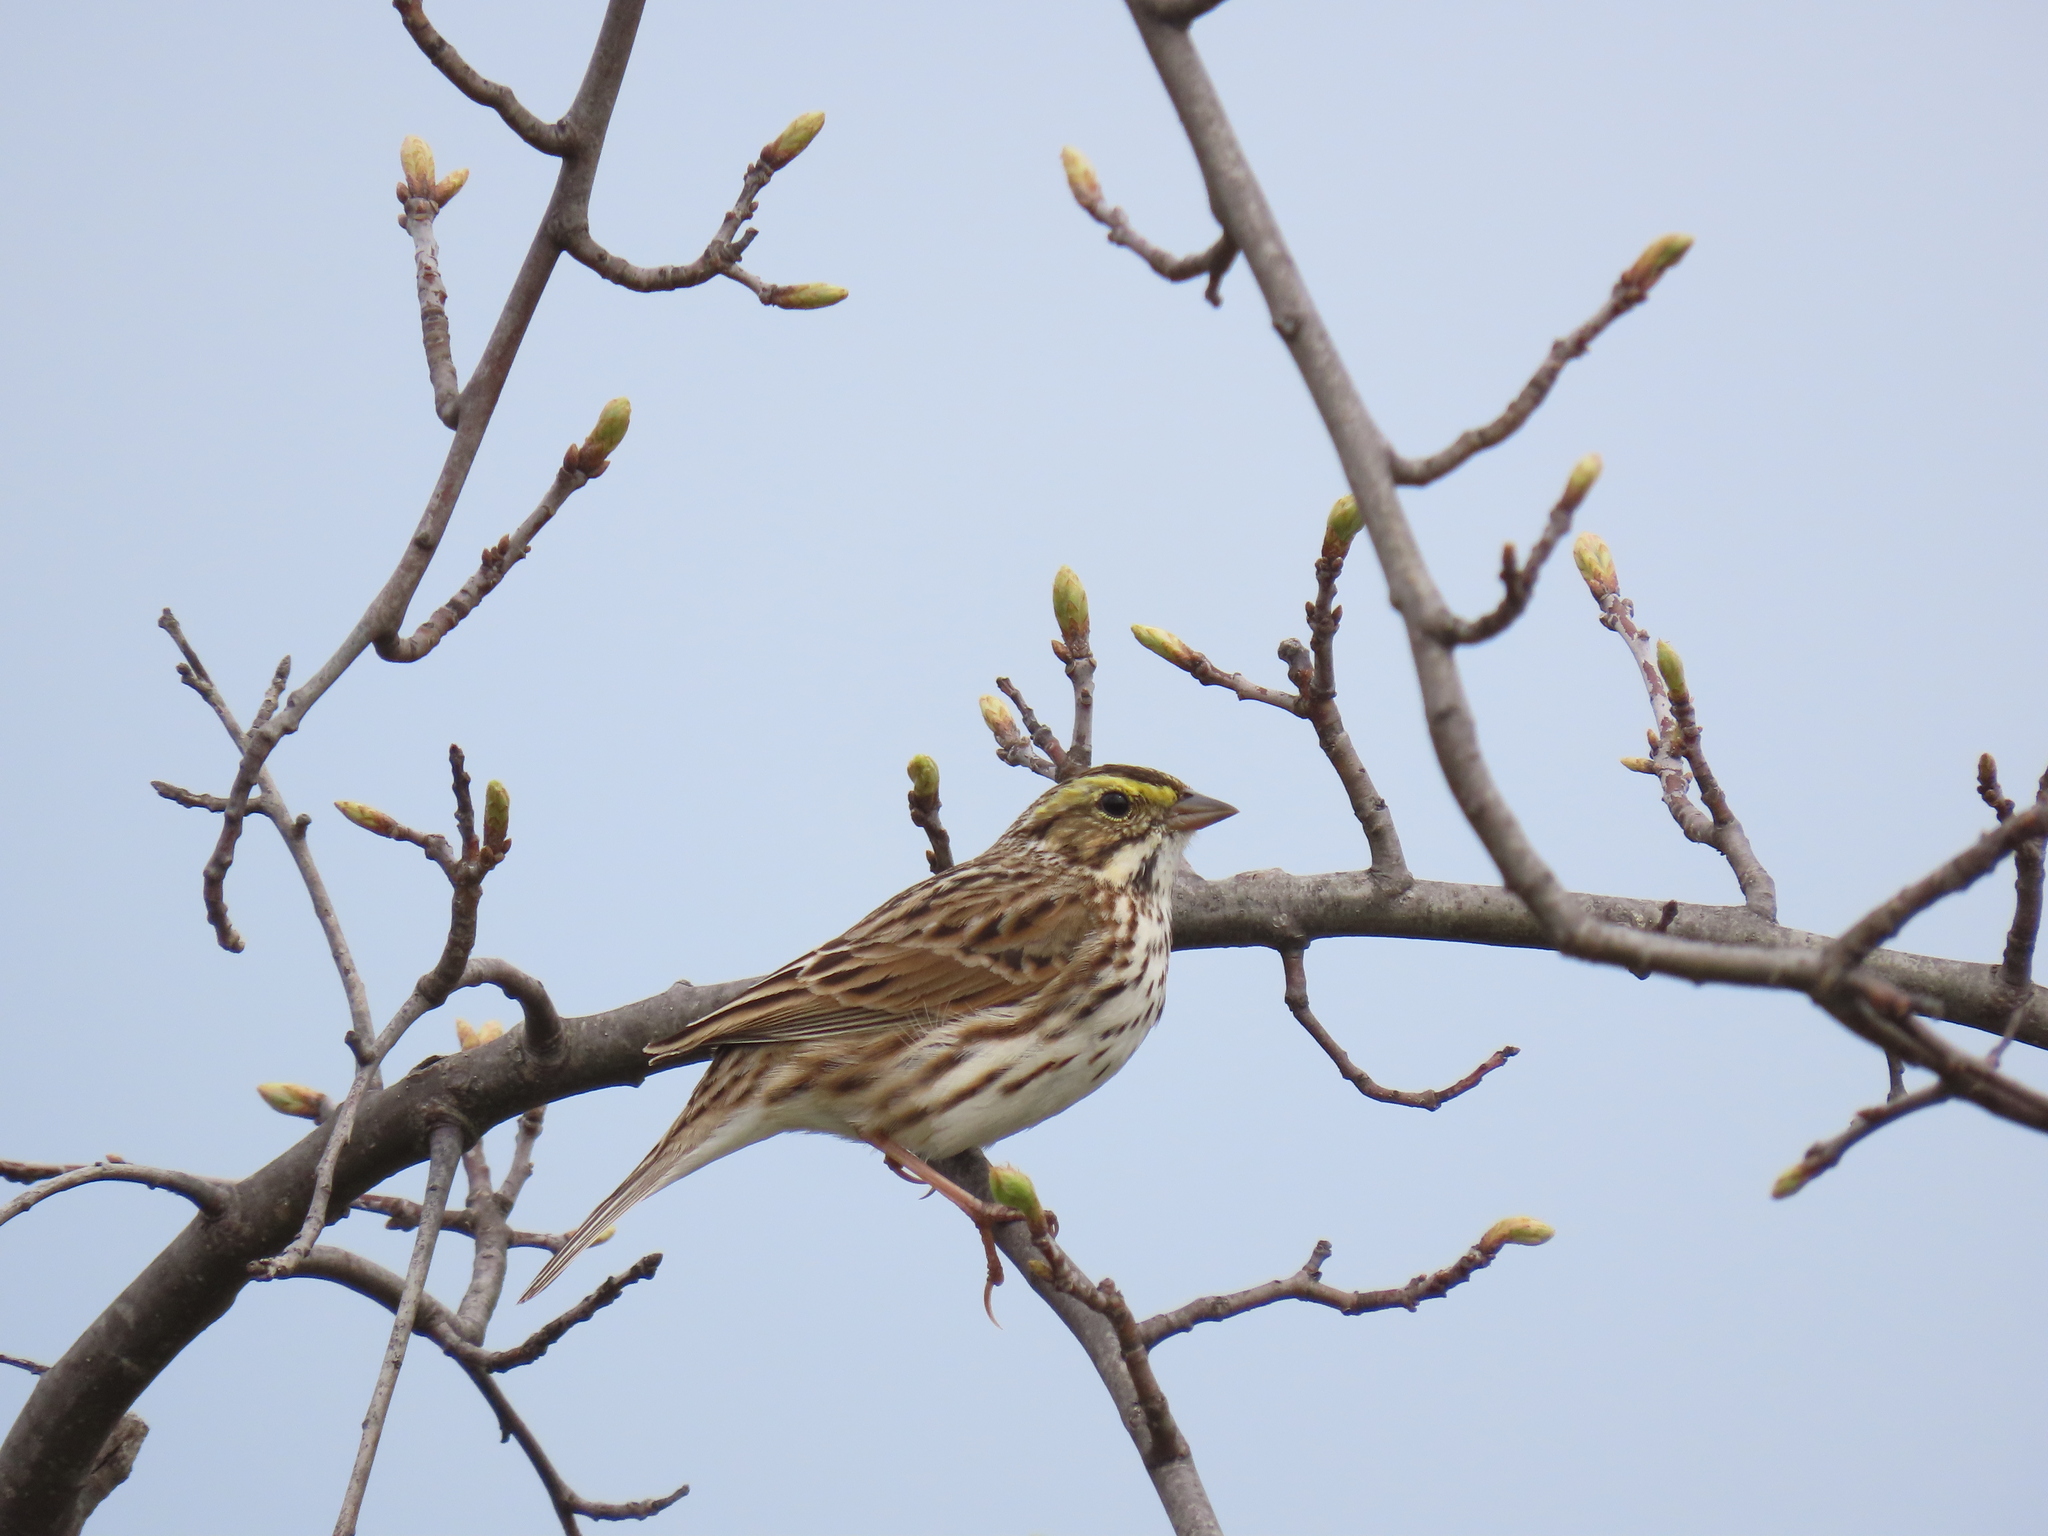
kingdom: Animalia
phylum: Chordata
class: Aves
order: Passeriformes
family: Passerellidae
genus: Passerculus
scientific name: Passerculus sandwichensis
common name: Savannah sparrow
